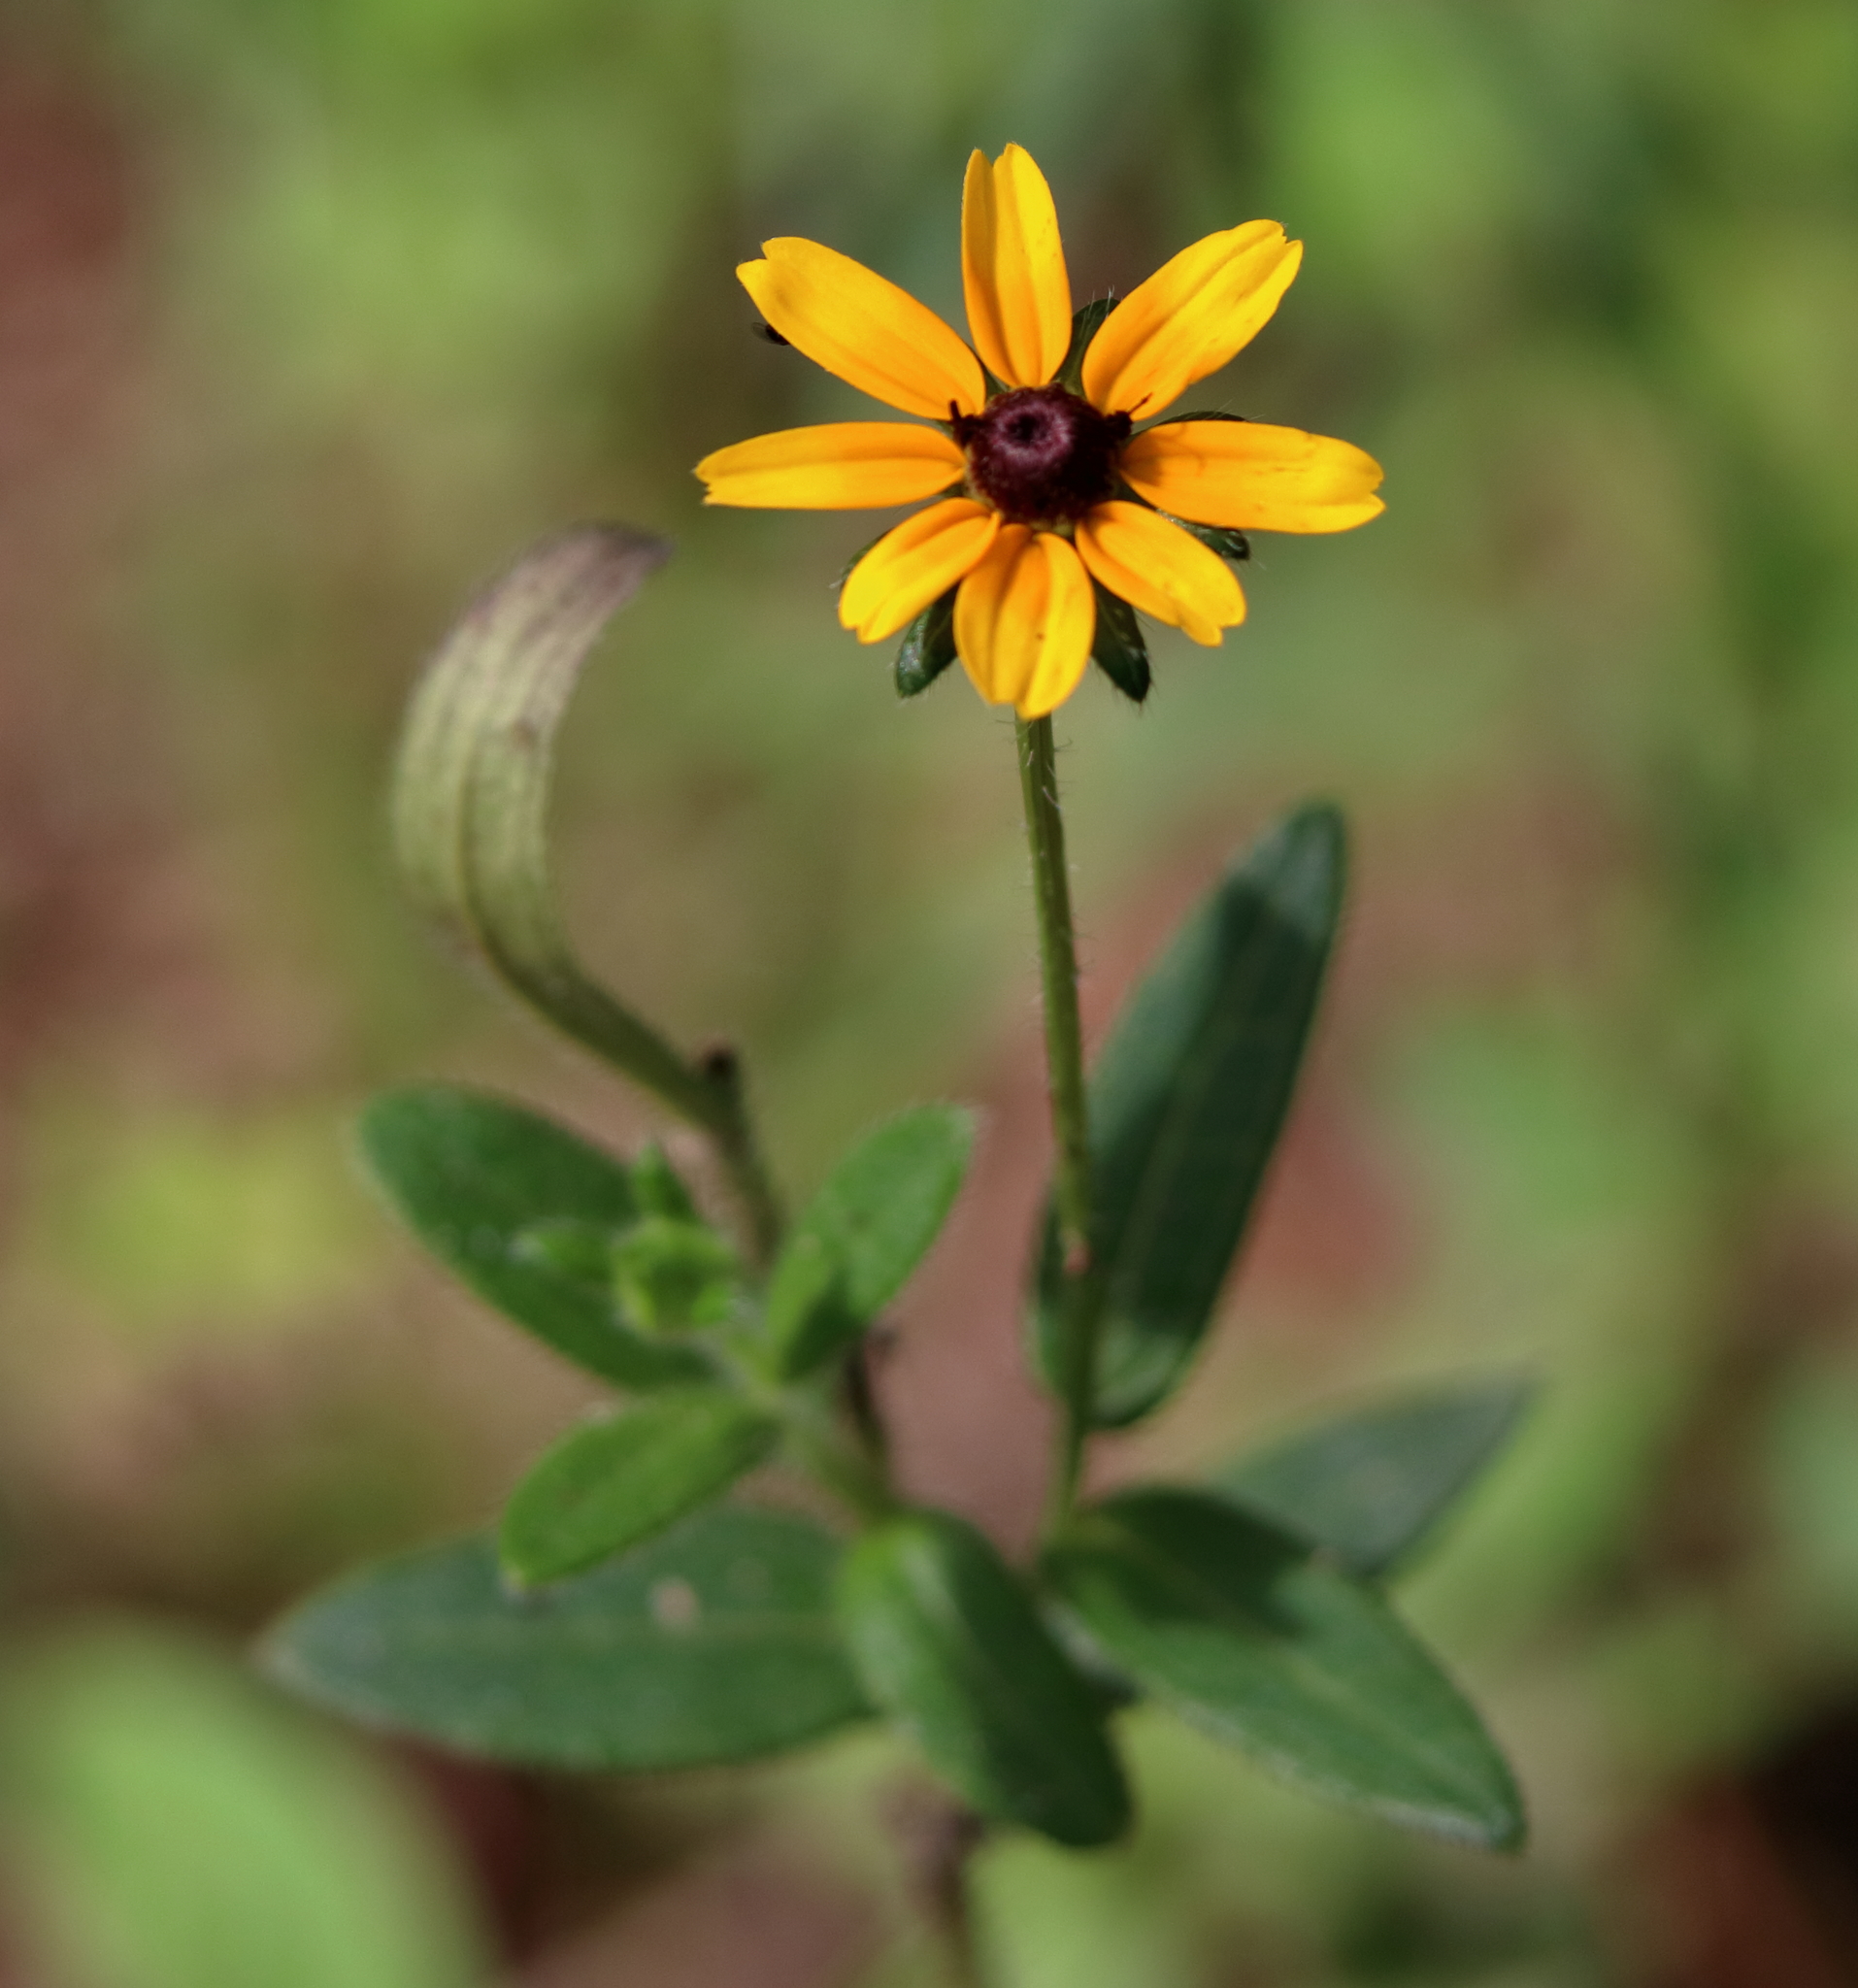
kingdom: Plantae
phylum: Tracheophyta
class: Magnoliopsida
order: Asterales
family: Asteraceae
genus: Rudbeckia
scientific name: Rudbeckia hirta
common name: Black-eyed-susan
